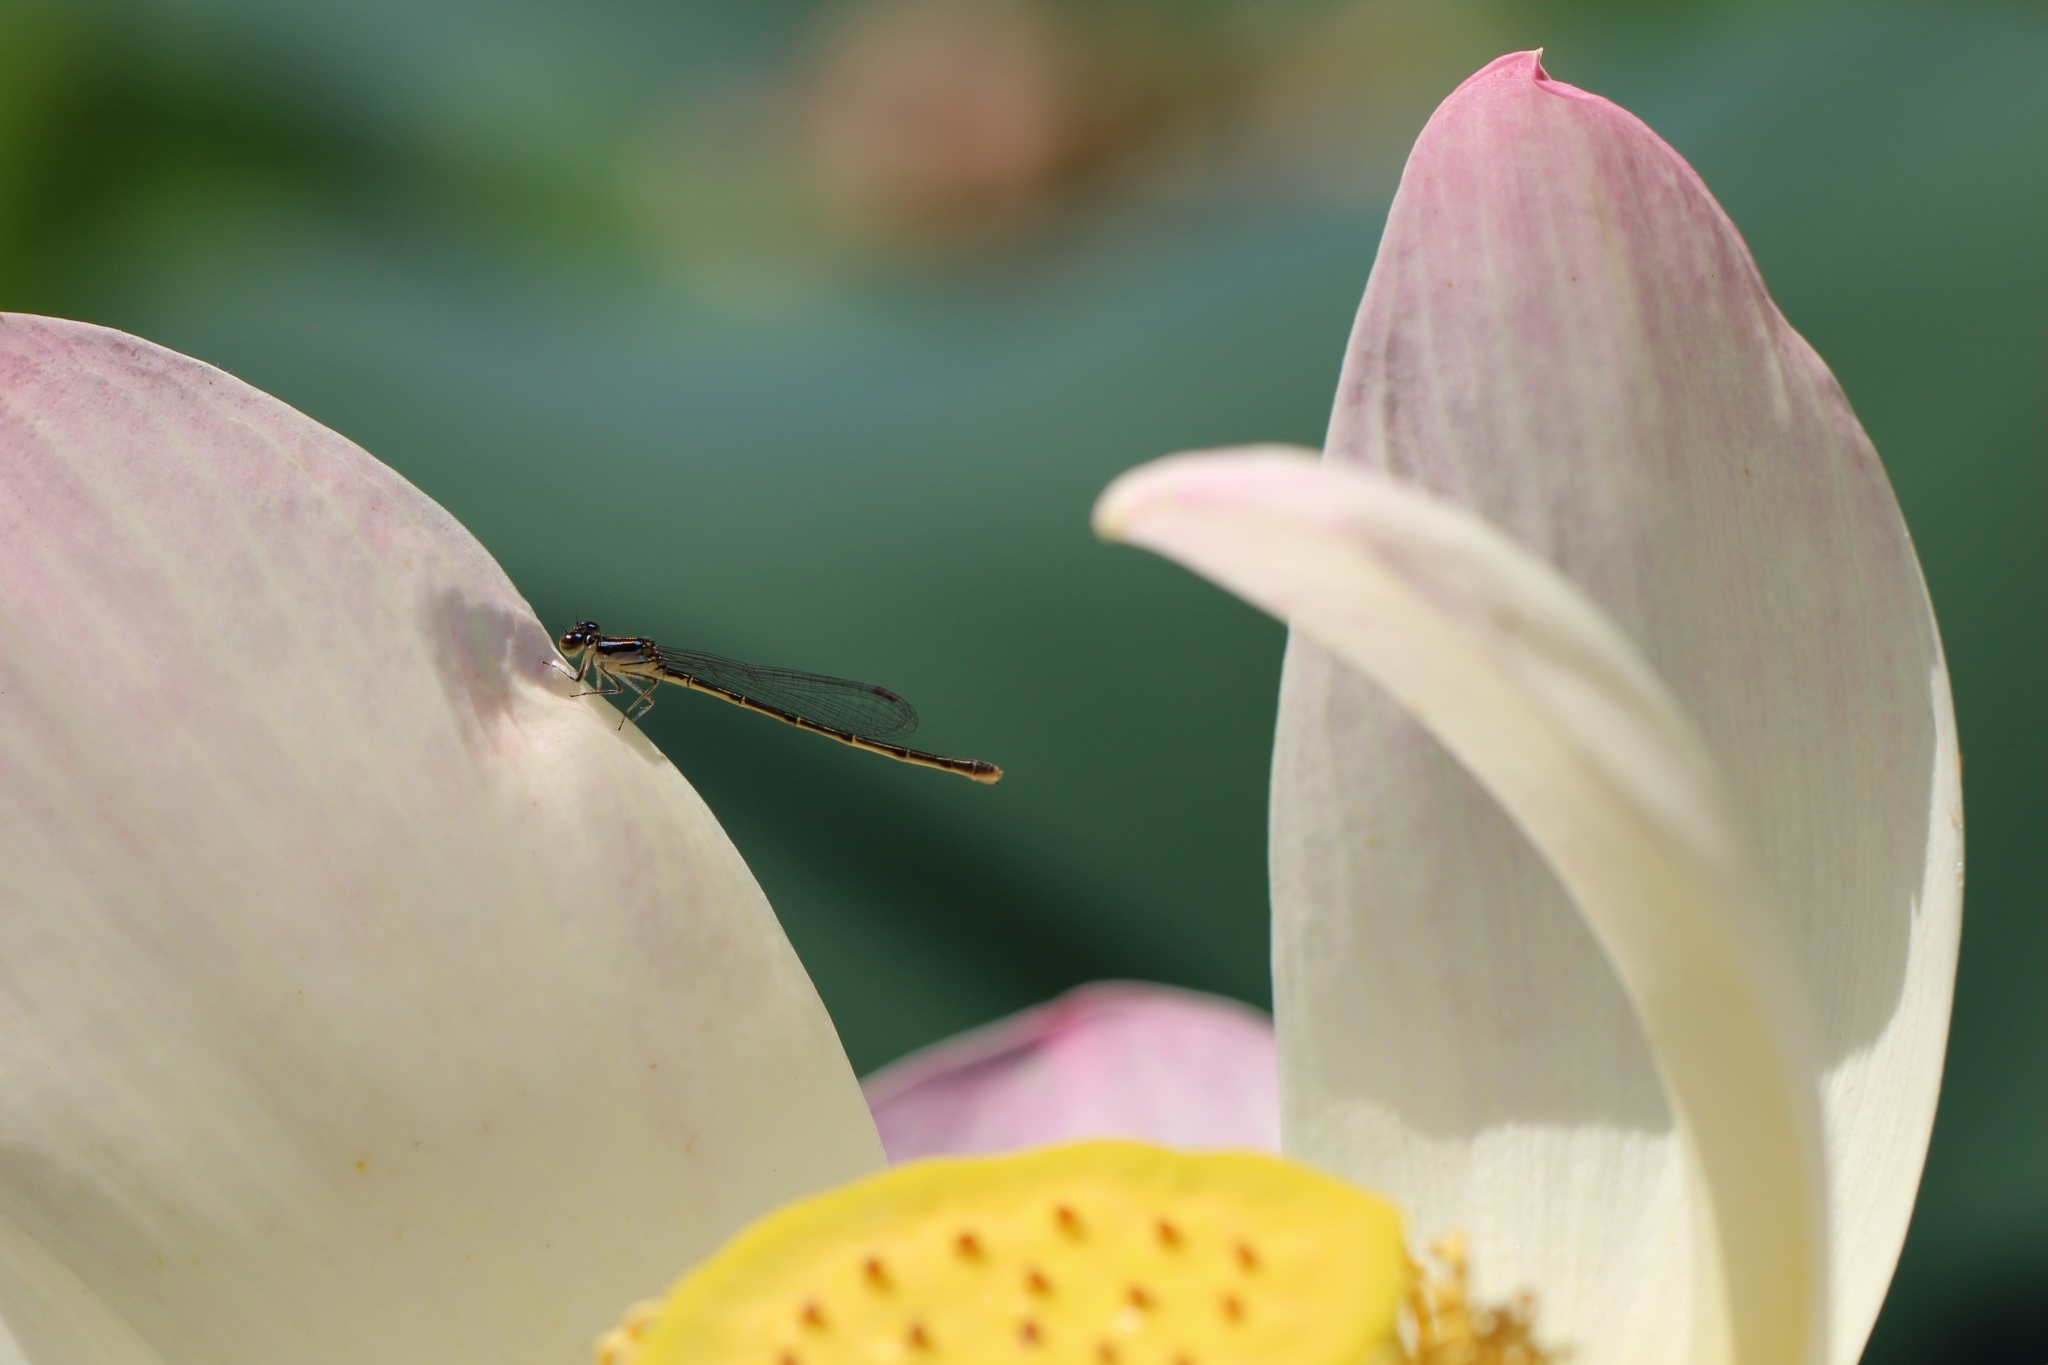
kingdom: Animalia
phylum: Arthropoda
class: Insecta
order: Odonata
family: Coenagrionidae
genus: Ischnura
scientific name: Ischnura posita
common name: Fragile forktail
